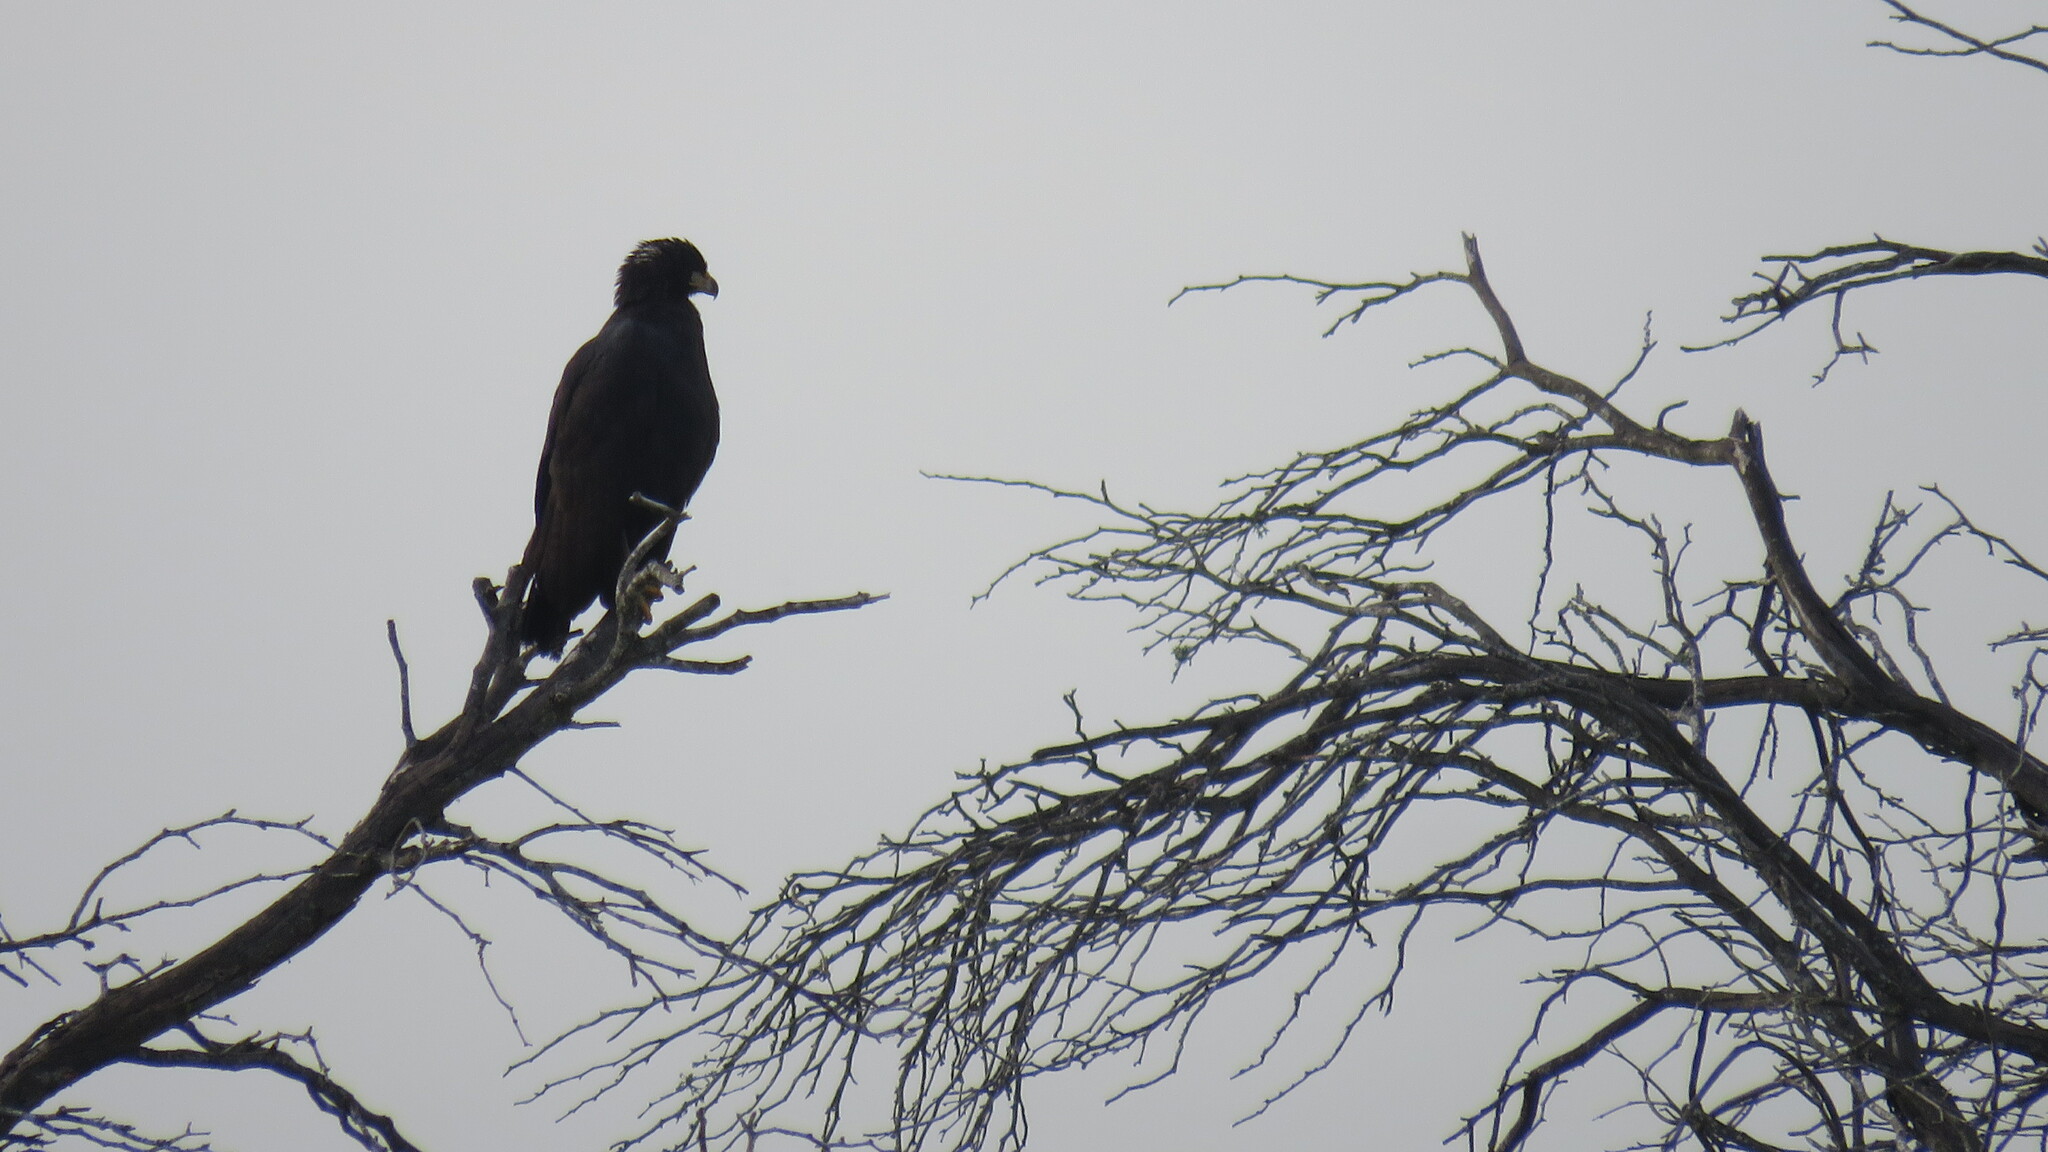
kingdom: Animalia
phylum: Chordata
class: Aves
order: Accipitriformes
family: Accipitridae
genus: Buteogallus
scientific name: Buteogallus urubitinga
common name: Great black hawk
